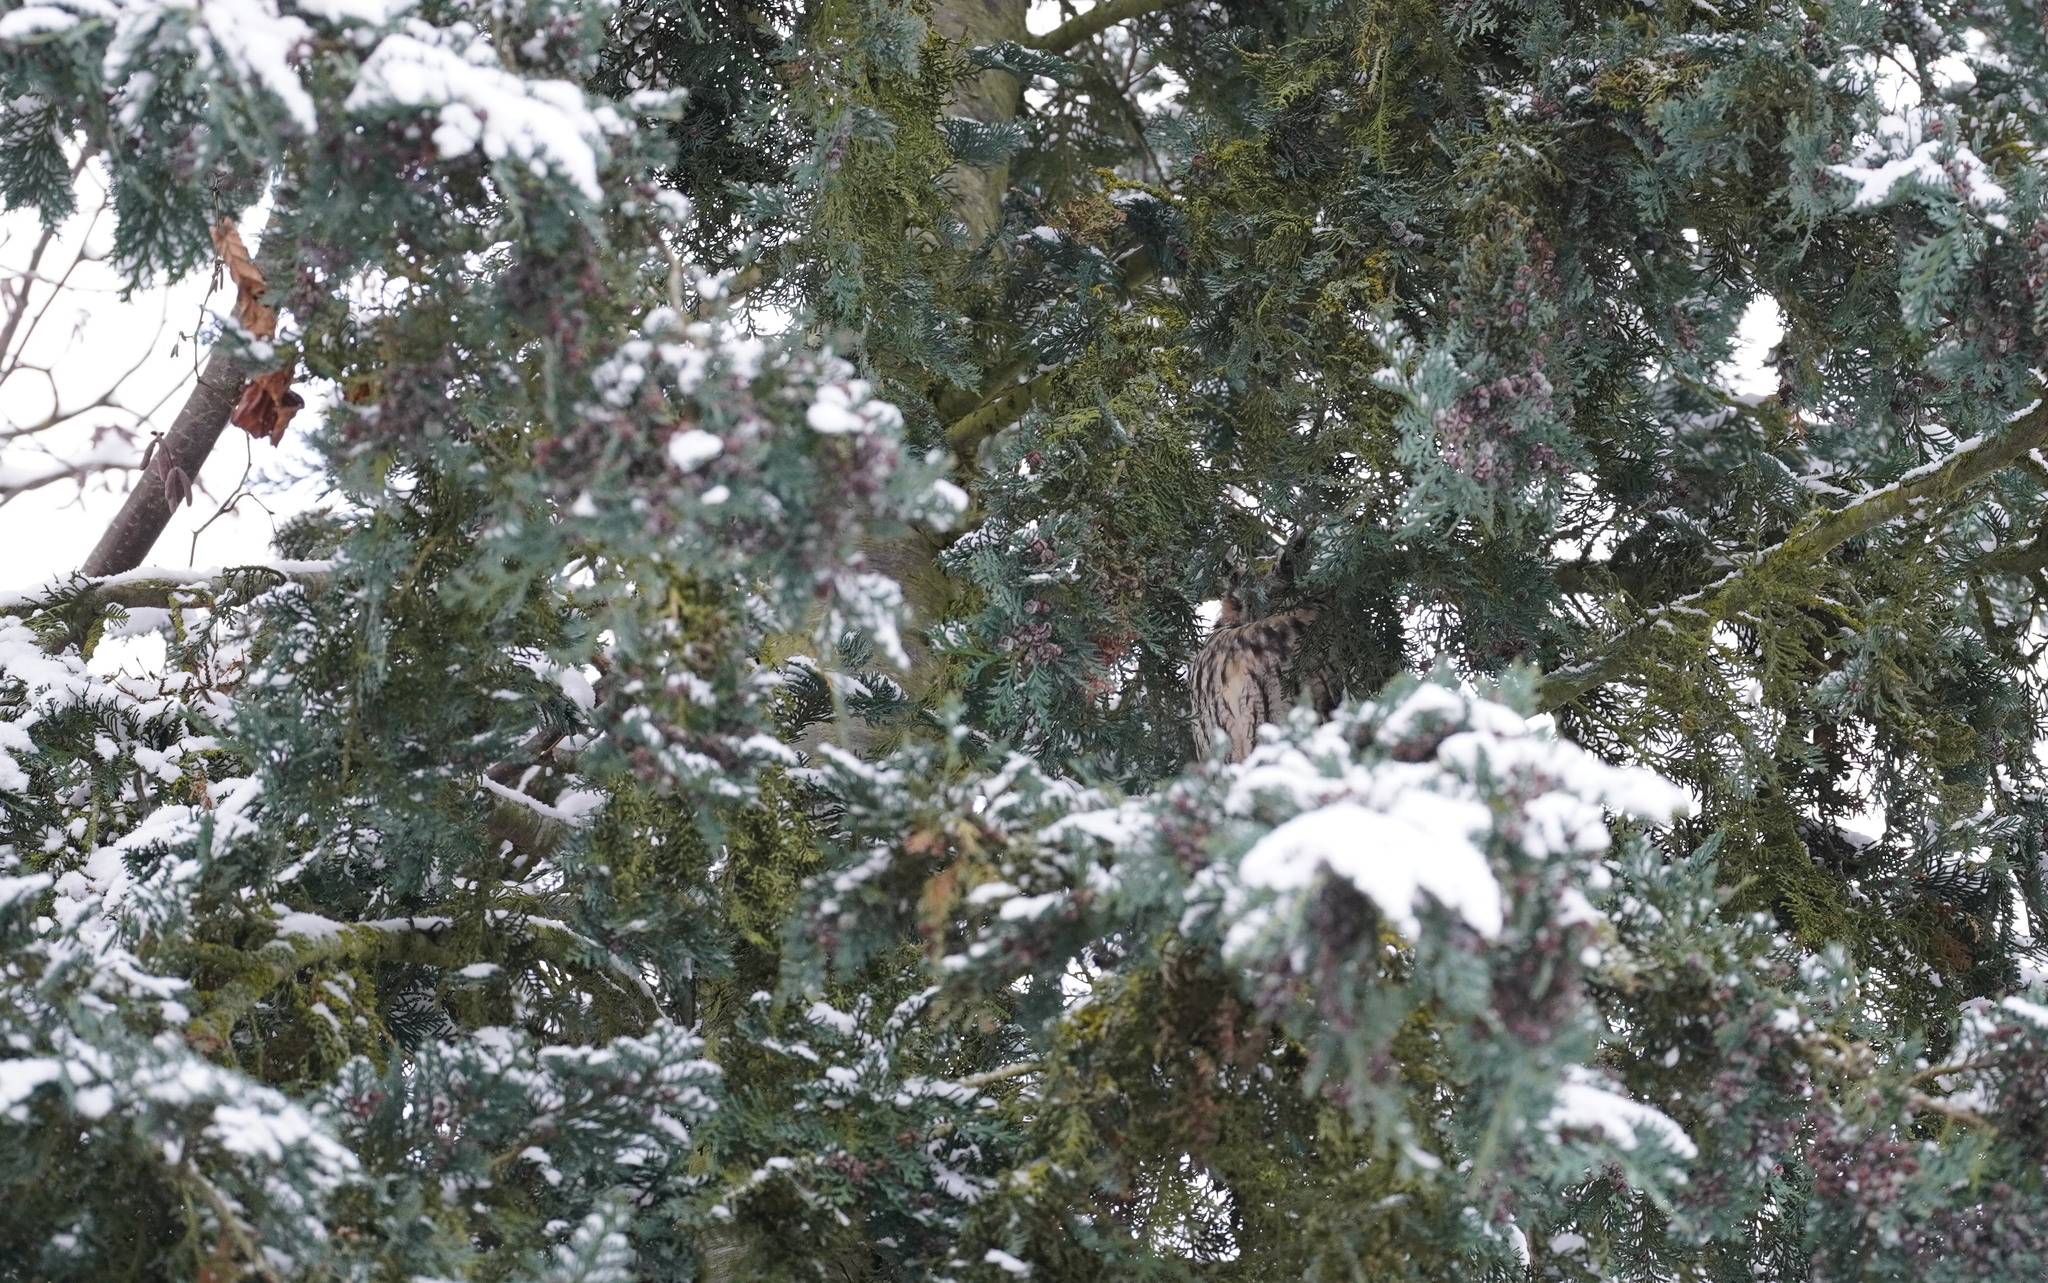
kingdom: Animalia
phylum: Chordata
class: Aves
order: Strigiformes
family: Strigidae
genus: Asio
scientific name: Asio otus
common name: Long-eared owl
